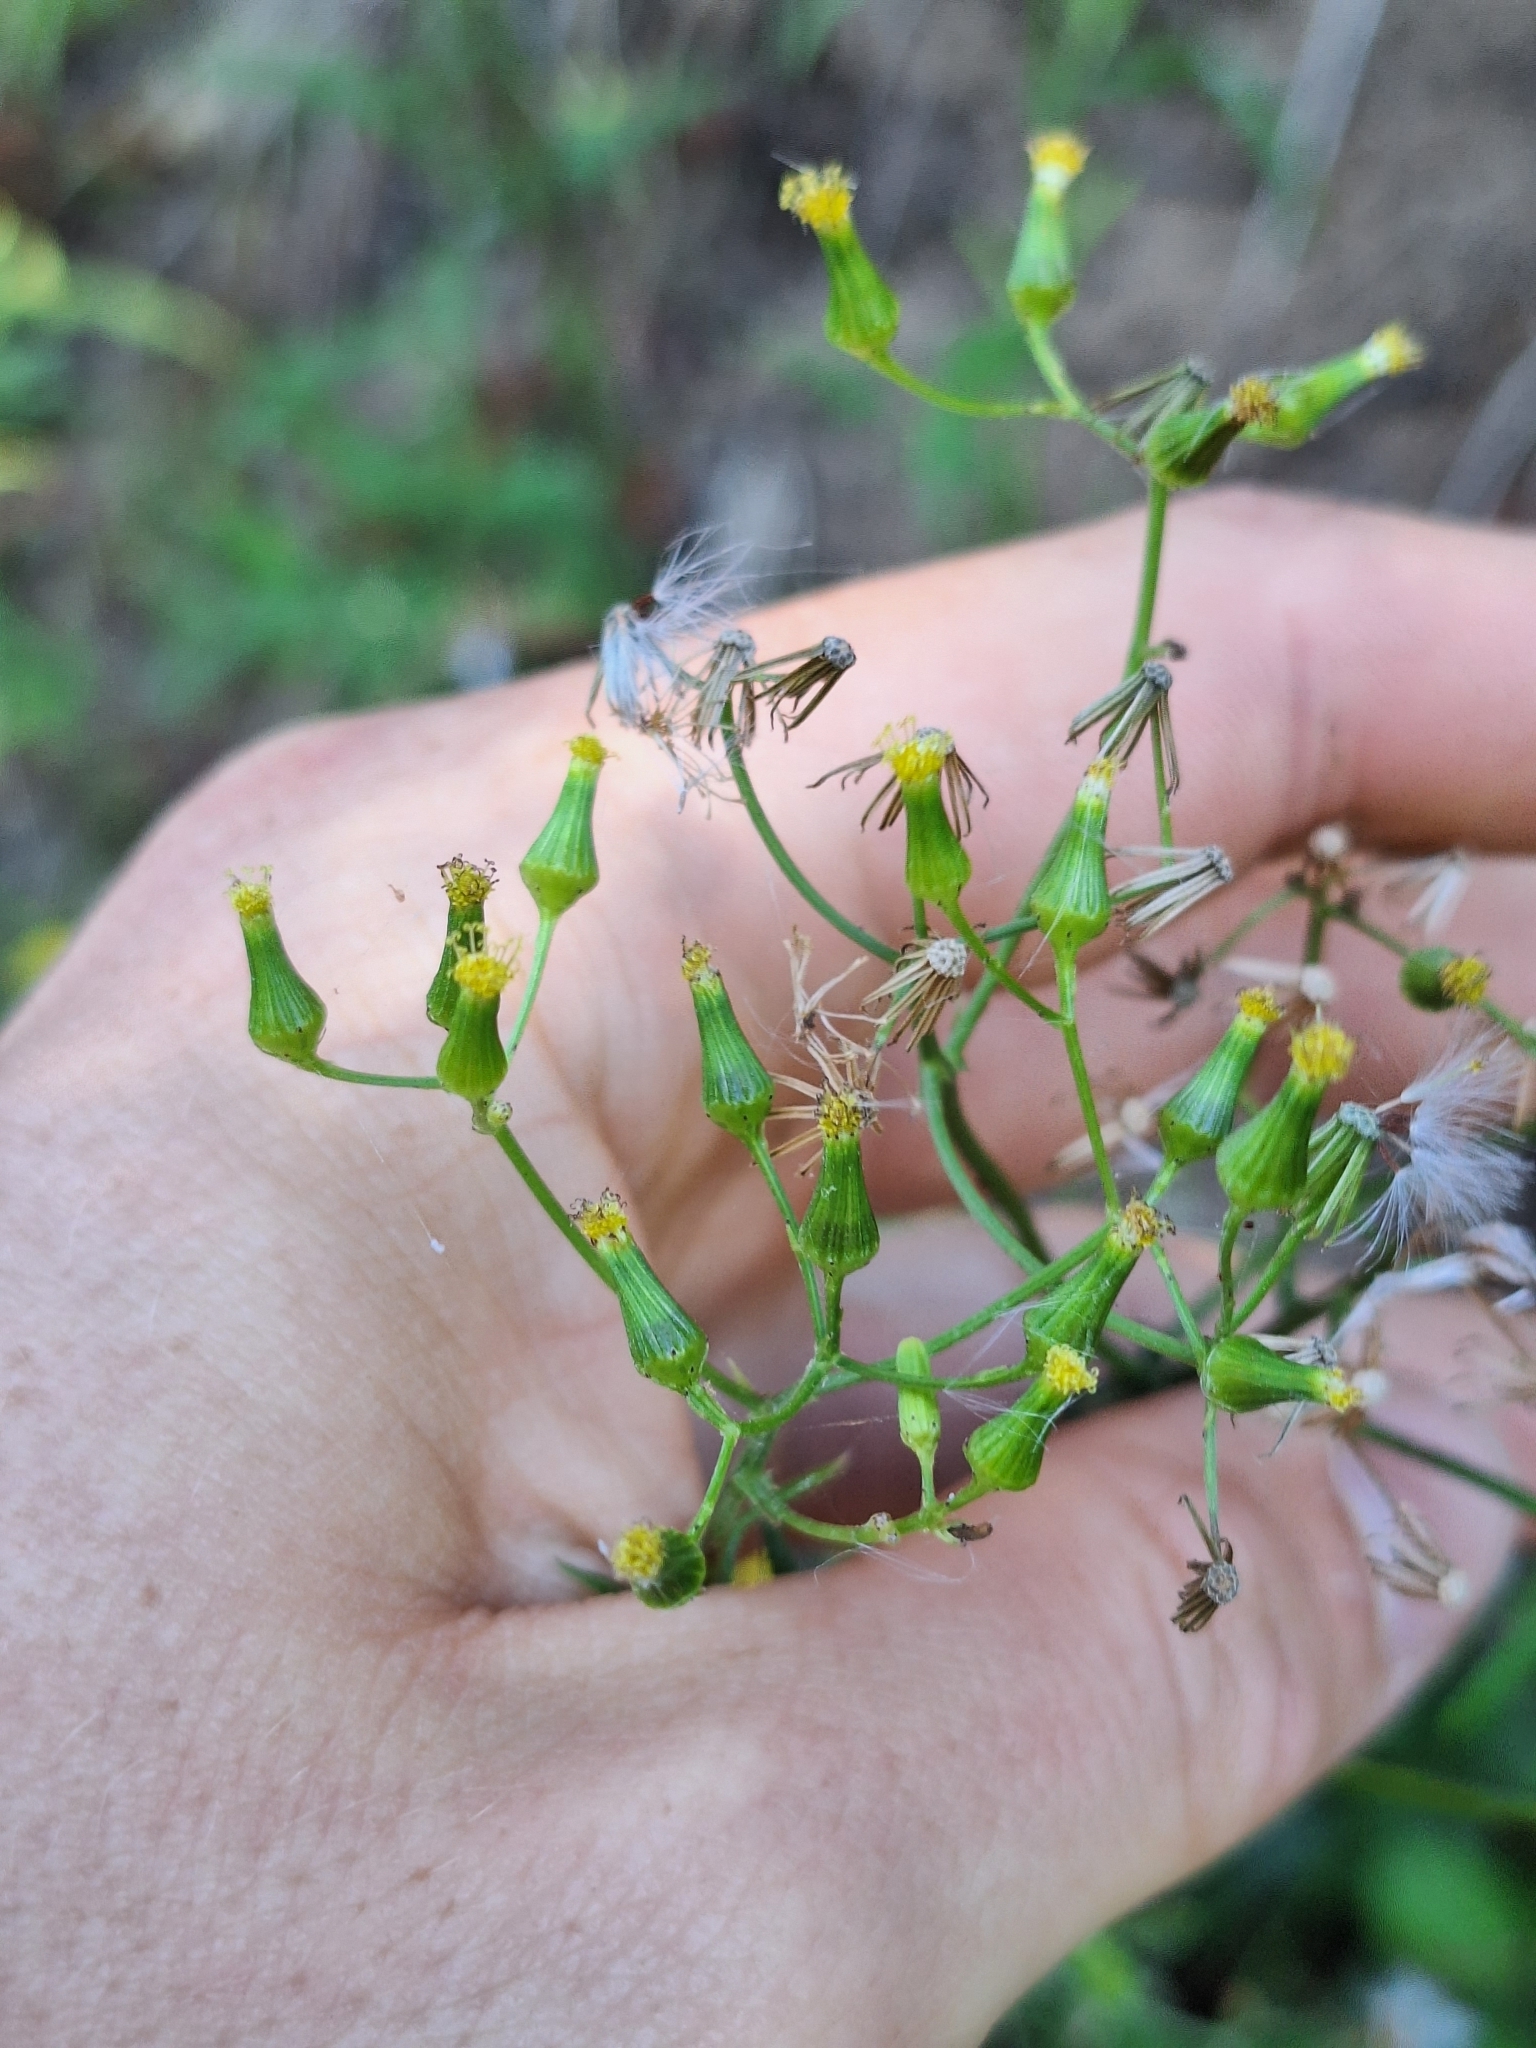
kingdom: Plantae
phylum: Tracheophyta
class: Magnoliopsida
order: Asterales
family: Asteraceae
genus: Senecio
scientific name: Senecio hispidulus
